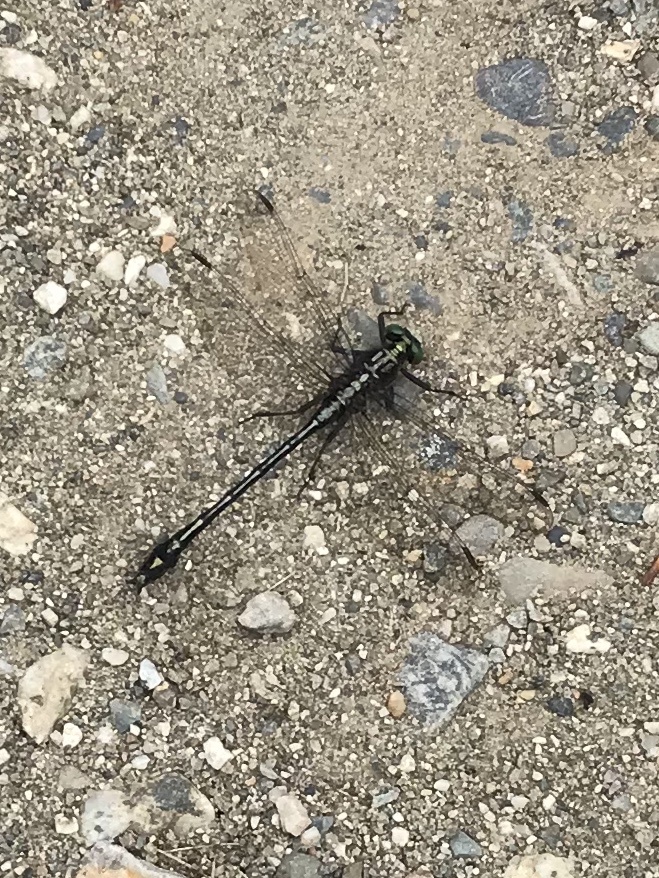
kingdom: Animalia
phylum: Arthropoda
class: Insecta
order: Odonata
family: Gomphidae
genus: Dromogomphus
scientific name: Dromogomphus spinosus
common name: Black-shouldered spinyleg
